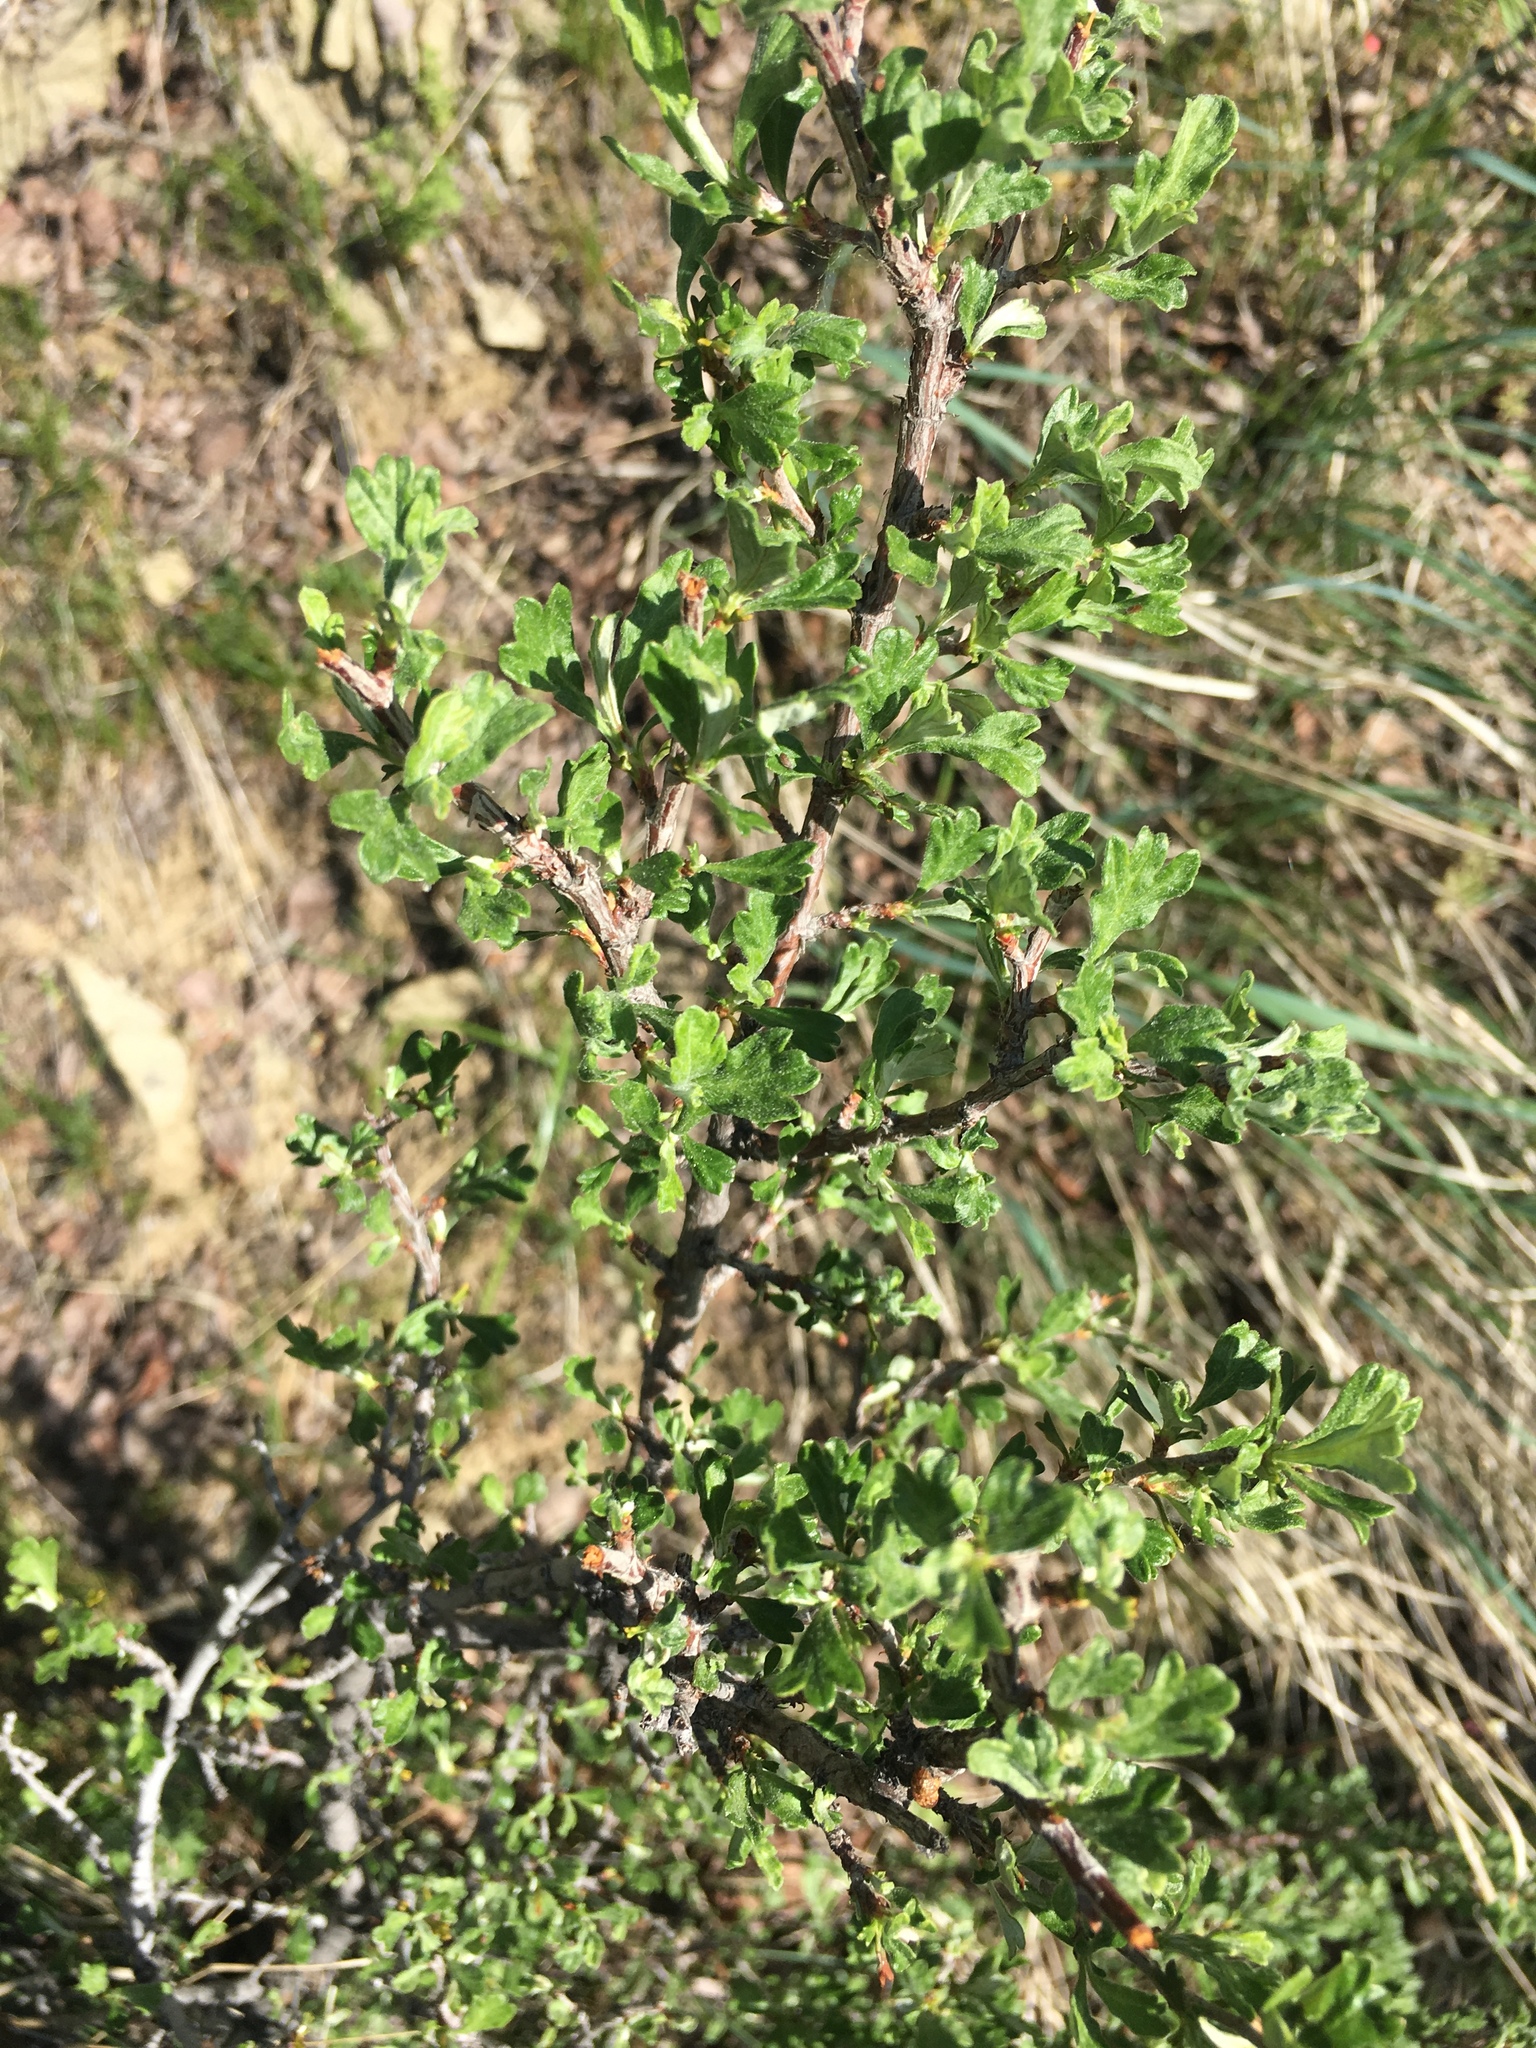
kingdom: Plantae
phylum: Tracheophyta
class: Magnoliopsida
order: Rosales
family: Rosaceae
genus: Purshia
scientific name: Purshia tridentata
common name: Antelope bitterbrush
